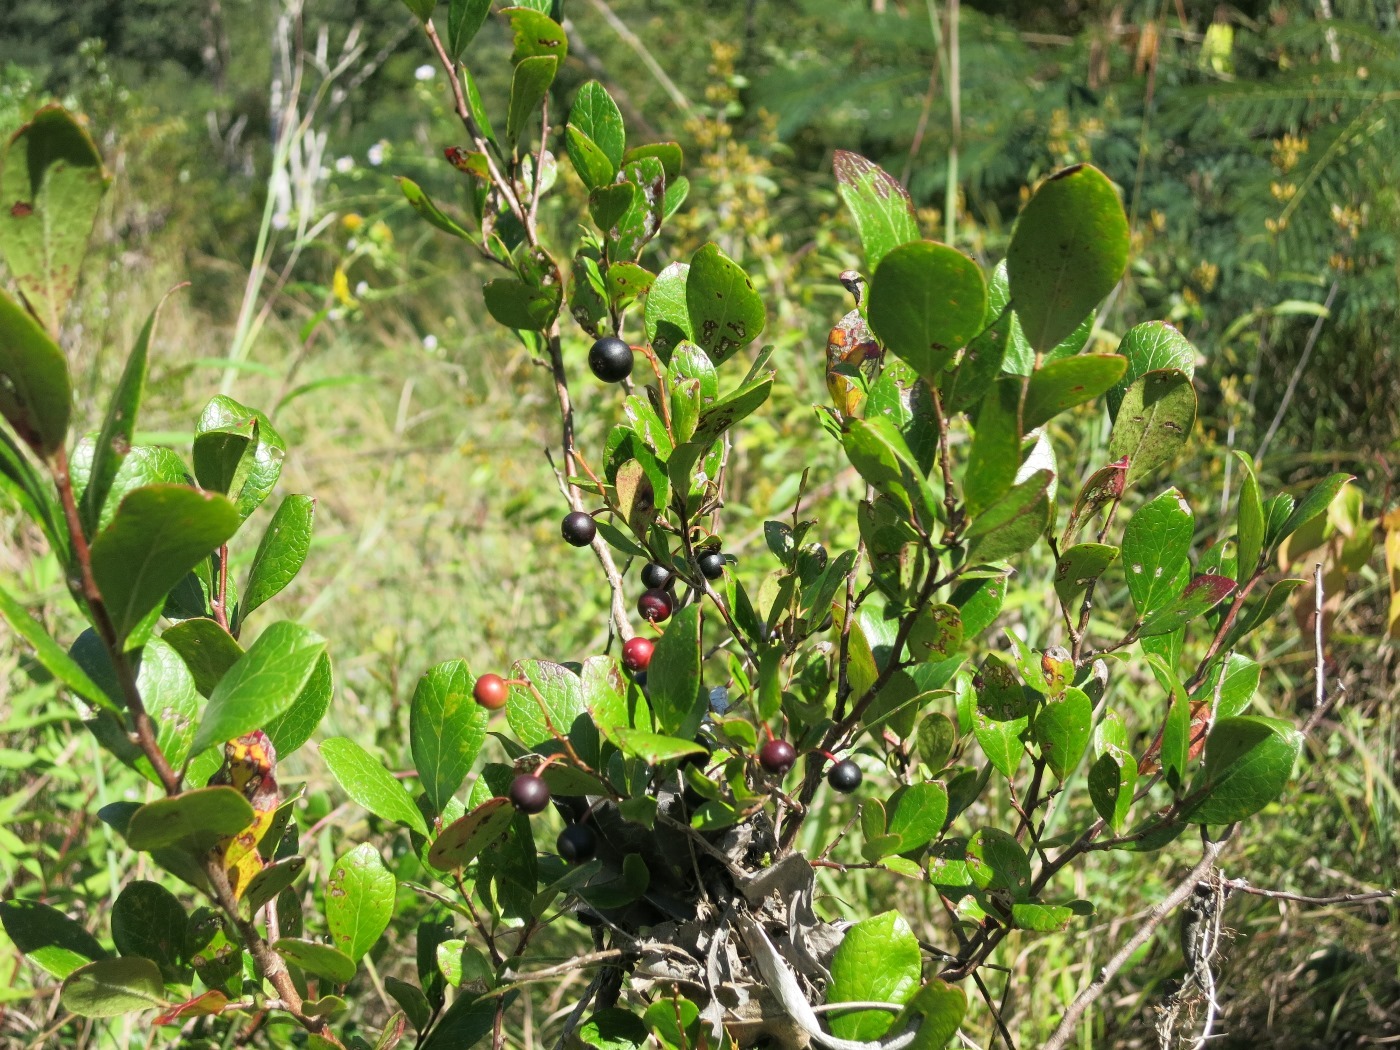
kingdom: Plantae
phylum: Tracheophyta
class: Magnoliopsida
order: Ericales
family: Ericaceae
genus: Vaccinium
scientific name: Vaccinium arboreum
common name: Farkleberry
